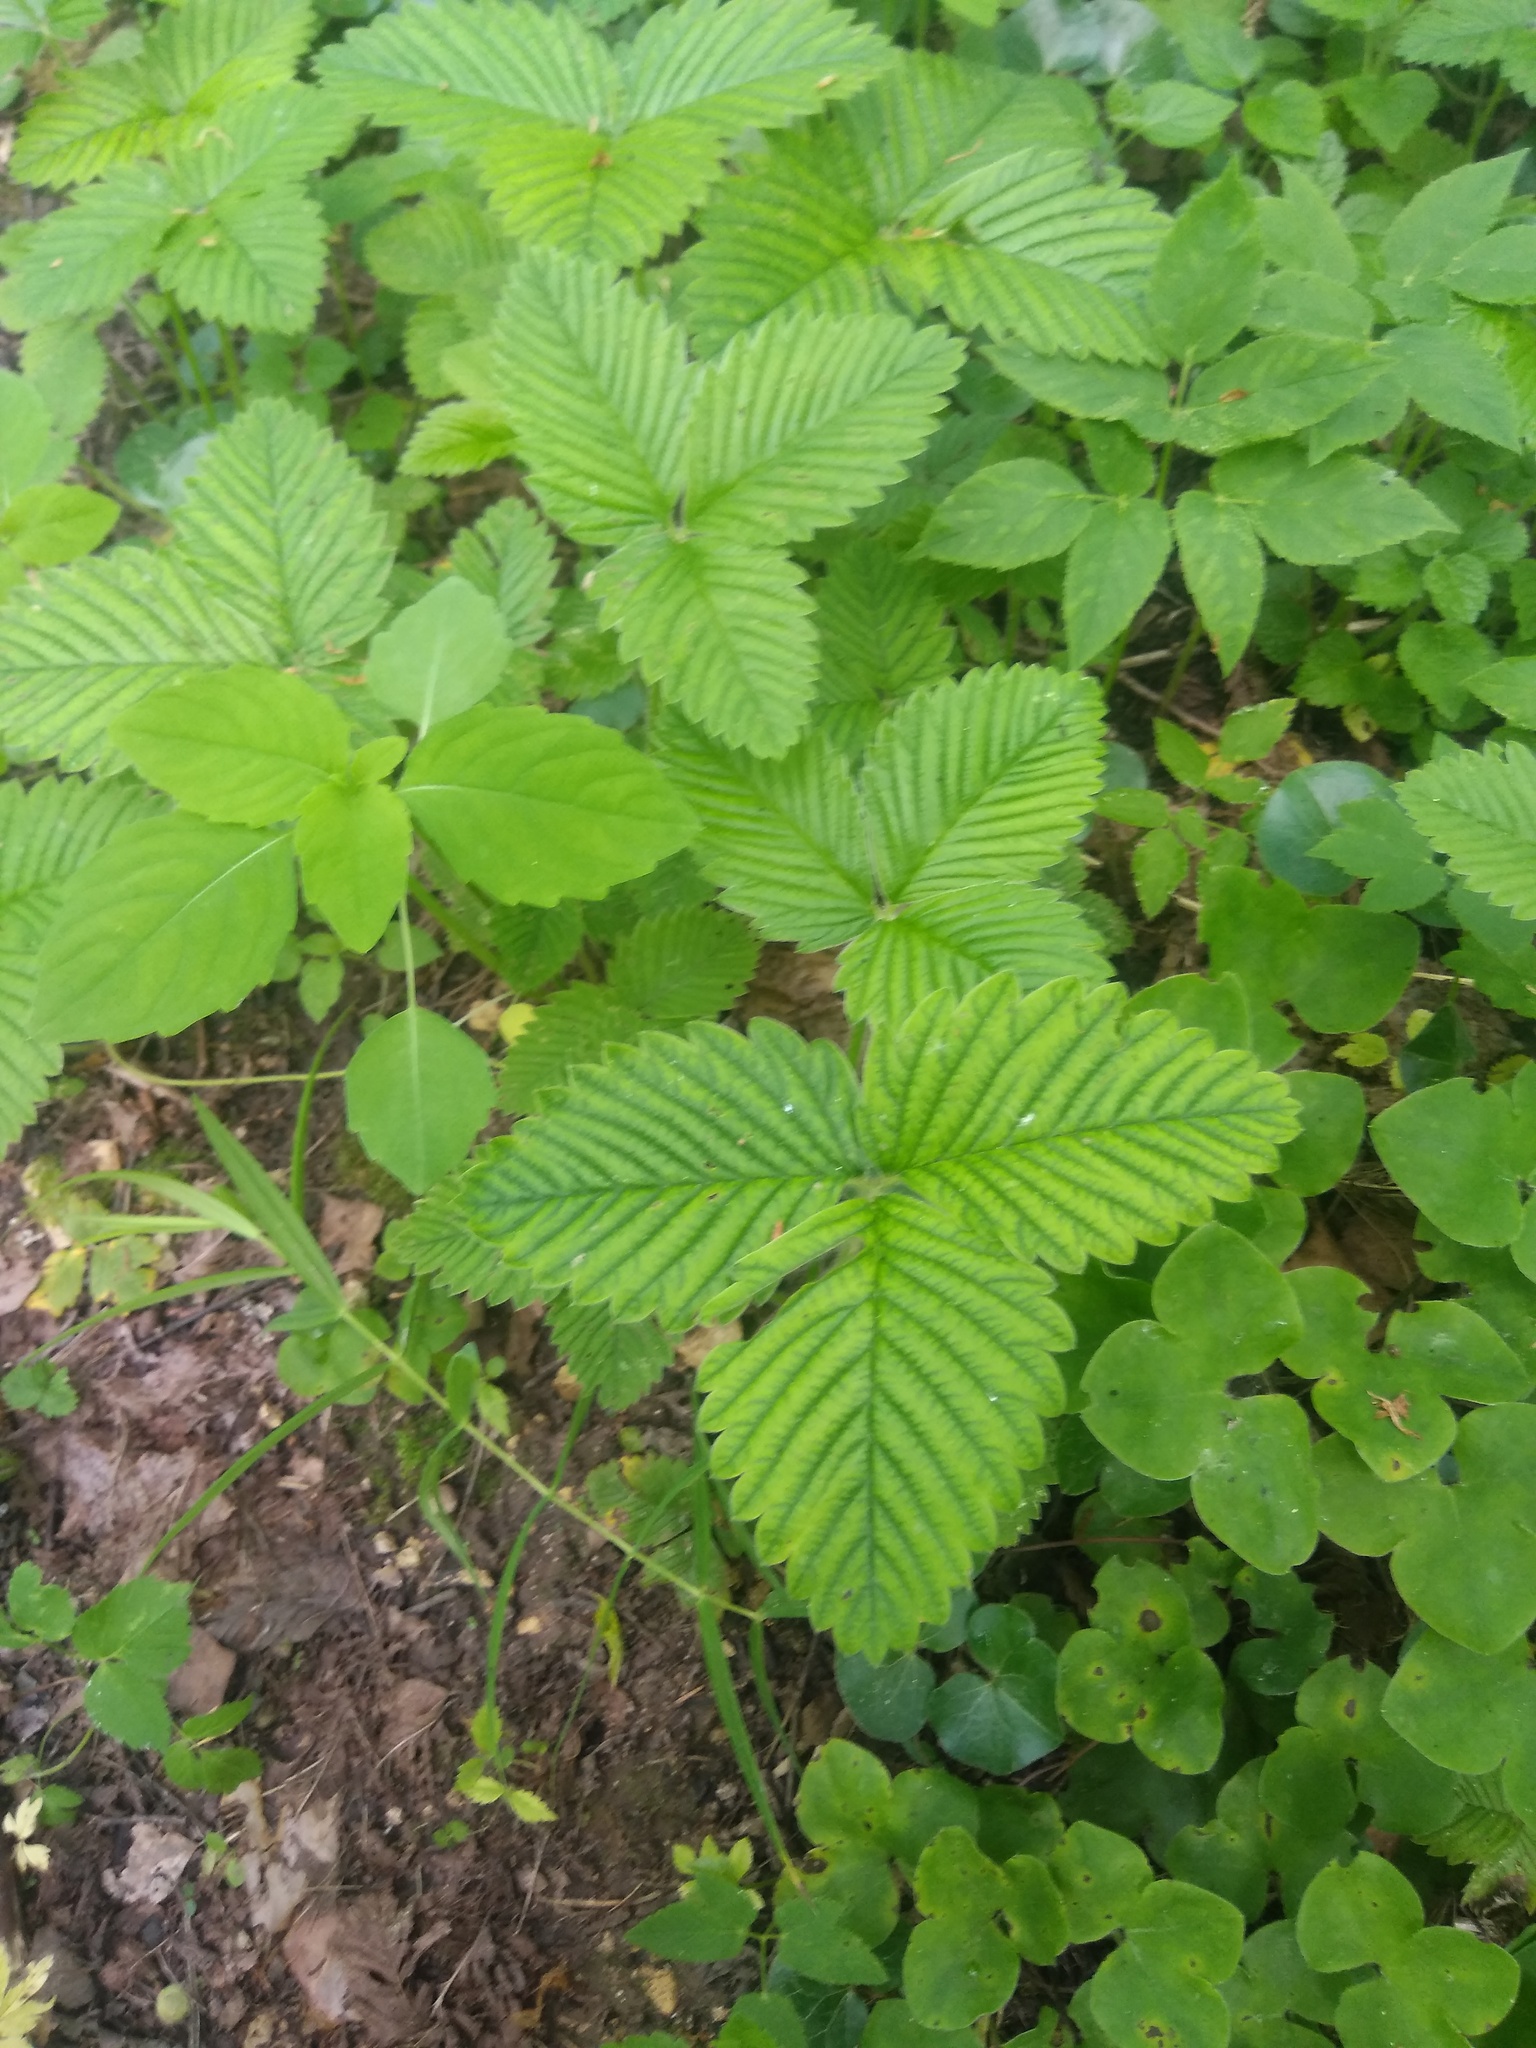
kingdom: Plantae
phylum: Tracheophyta
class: Magnoliopsida
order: Rosales
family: Rosaceae
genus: Fragaria
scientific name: Fragaria moschata
